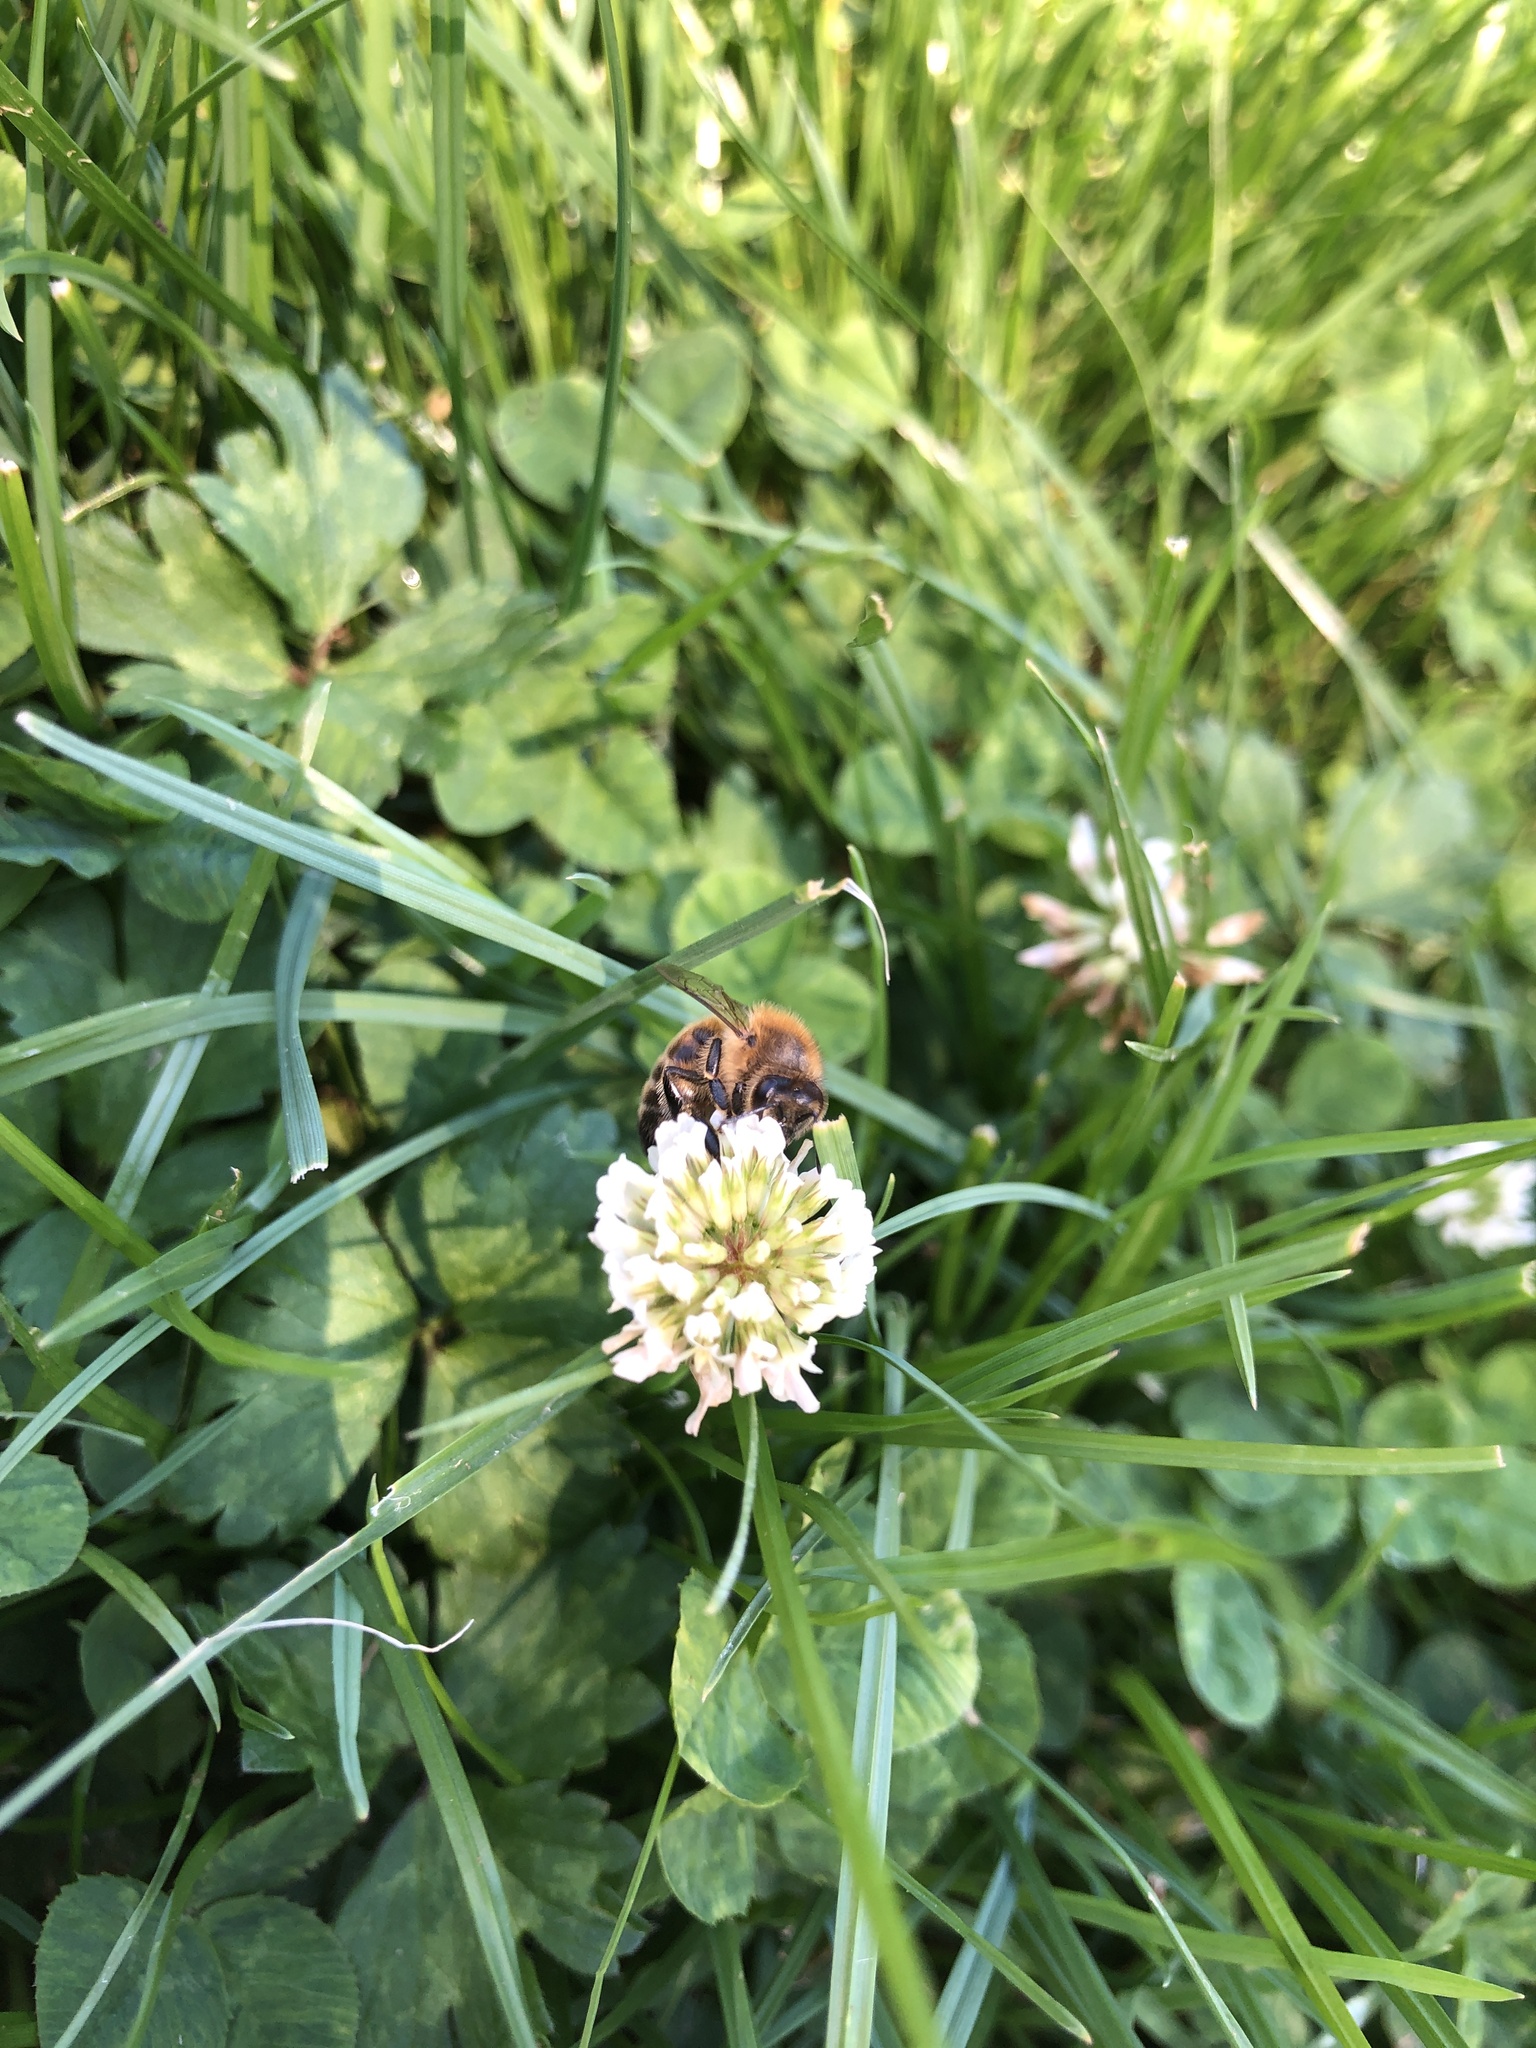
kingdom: Animalia
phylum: Arthropoda
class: Insecta
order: Hymenoptera
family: Apidae
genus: Apis
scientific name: Apis mellifera
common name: Honey bee
